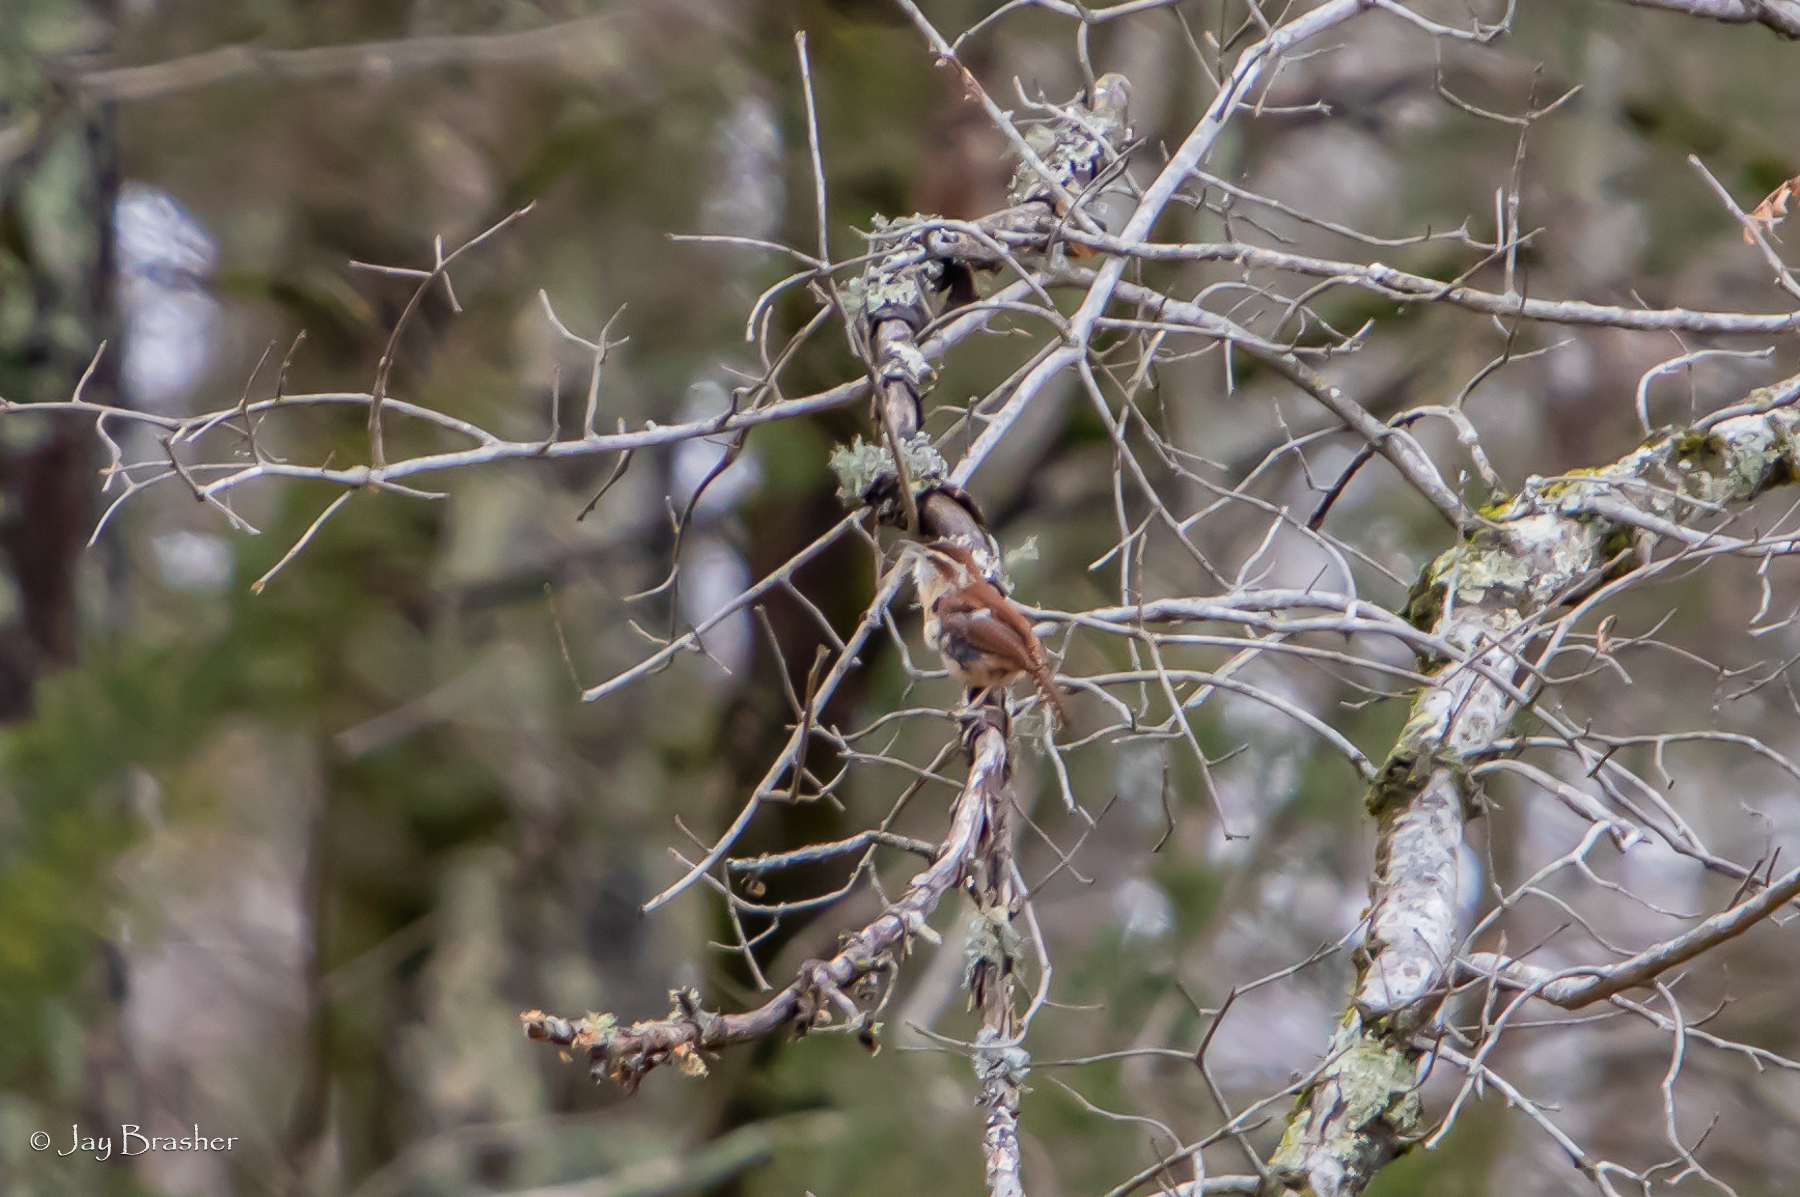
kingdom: Animalia
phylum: Chordata
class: Aves
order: Passeriformes
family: Troglodytidae
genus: Thryothorus
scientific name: Thryothorus ludovicianus
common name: Carolina wren
